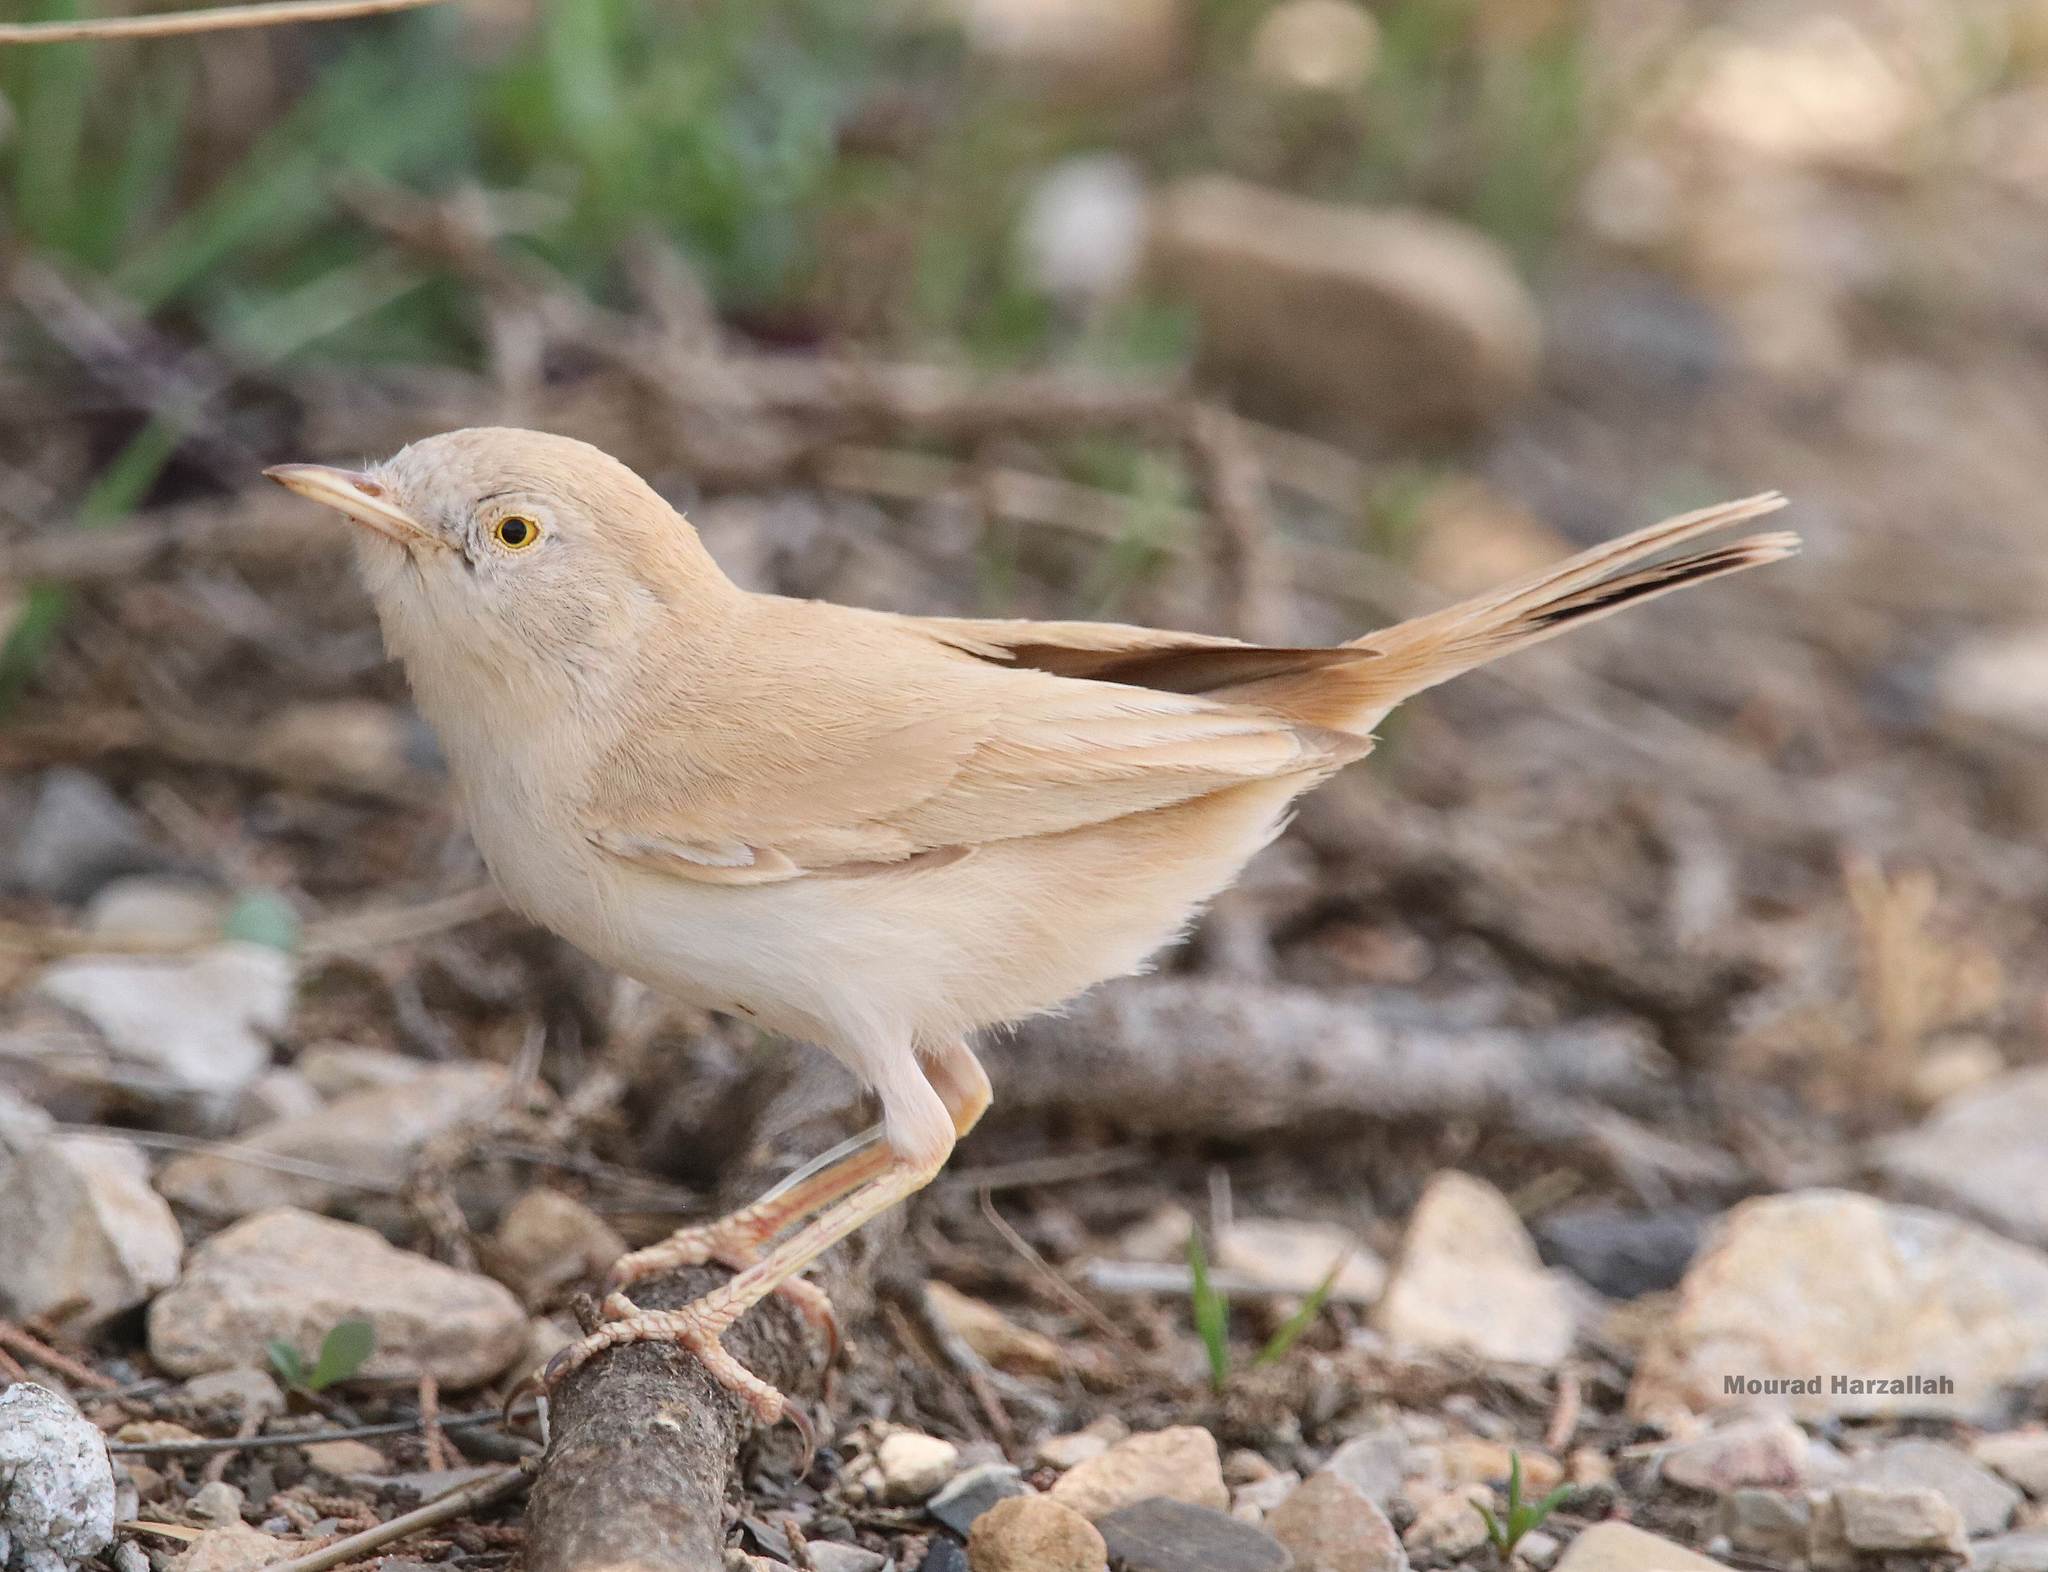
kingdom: Animalia
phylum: Chordata
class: Aves
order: Passeriformes
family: Sylviidae
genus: Sylvia
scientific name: Sylvia deserti
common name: African desert warbler
